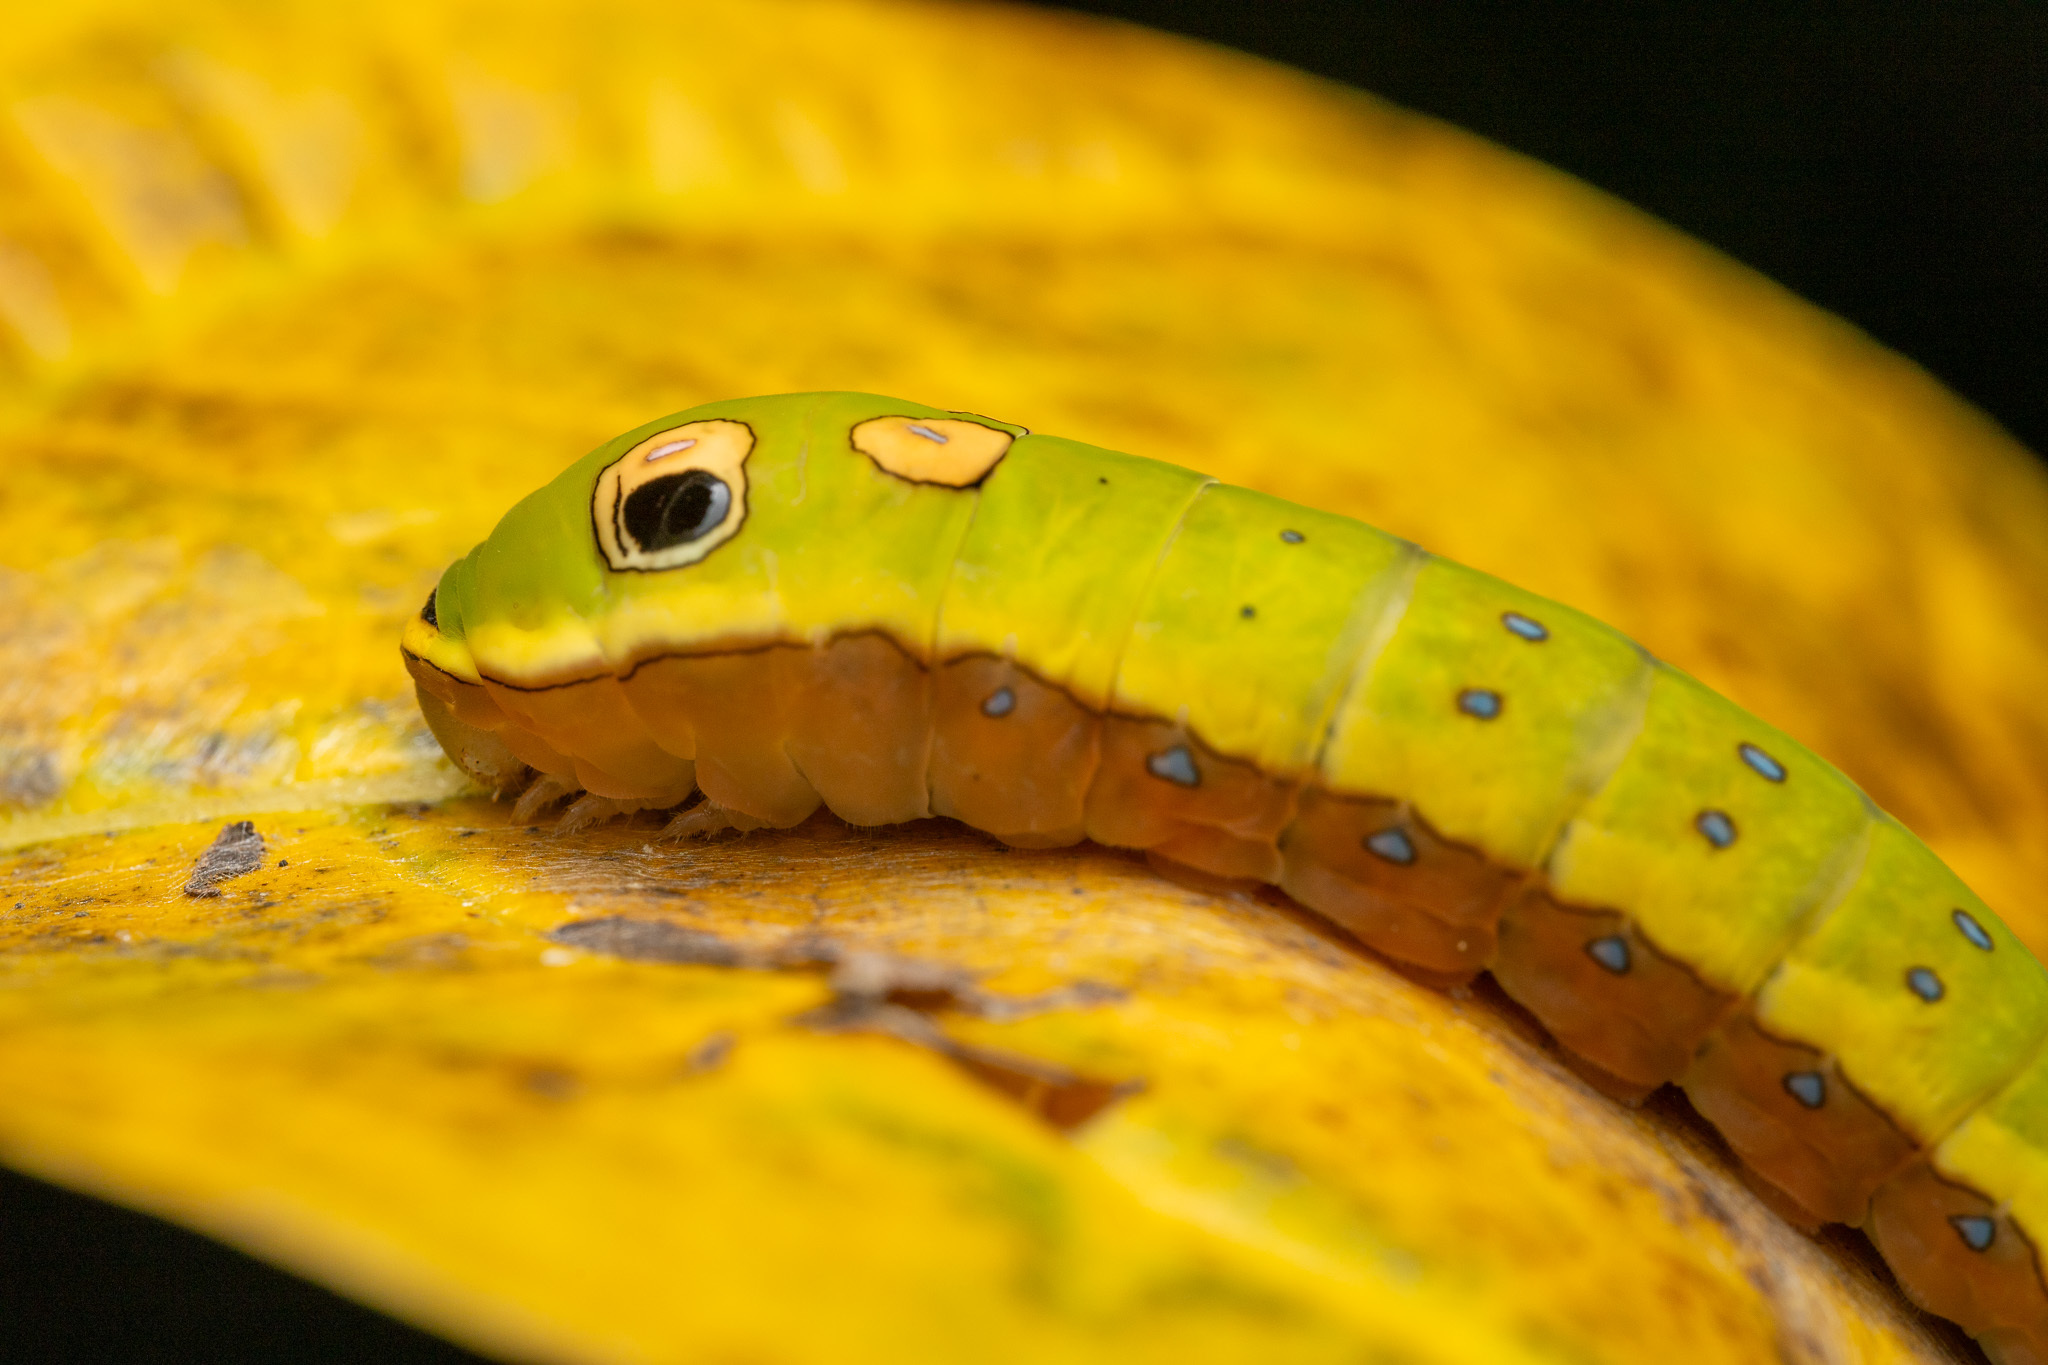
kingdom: Animalia
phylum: Arthropoda
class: Insecta
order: Lepidoptera
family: Papilionidae
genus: Papilio
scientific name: Papilio troilus
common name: Spicebush swallowtail
